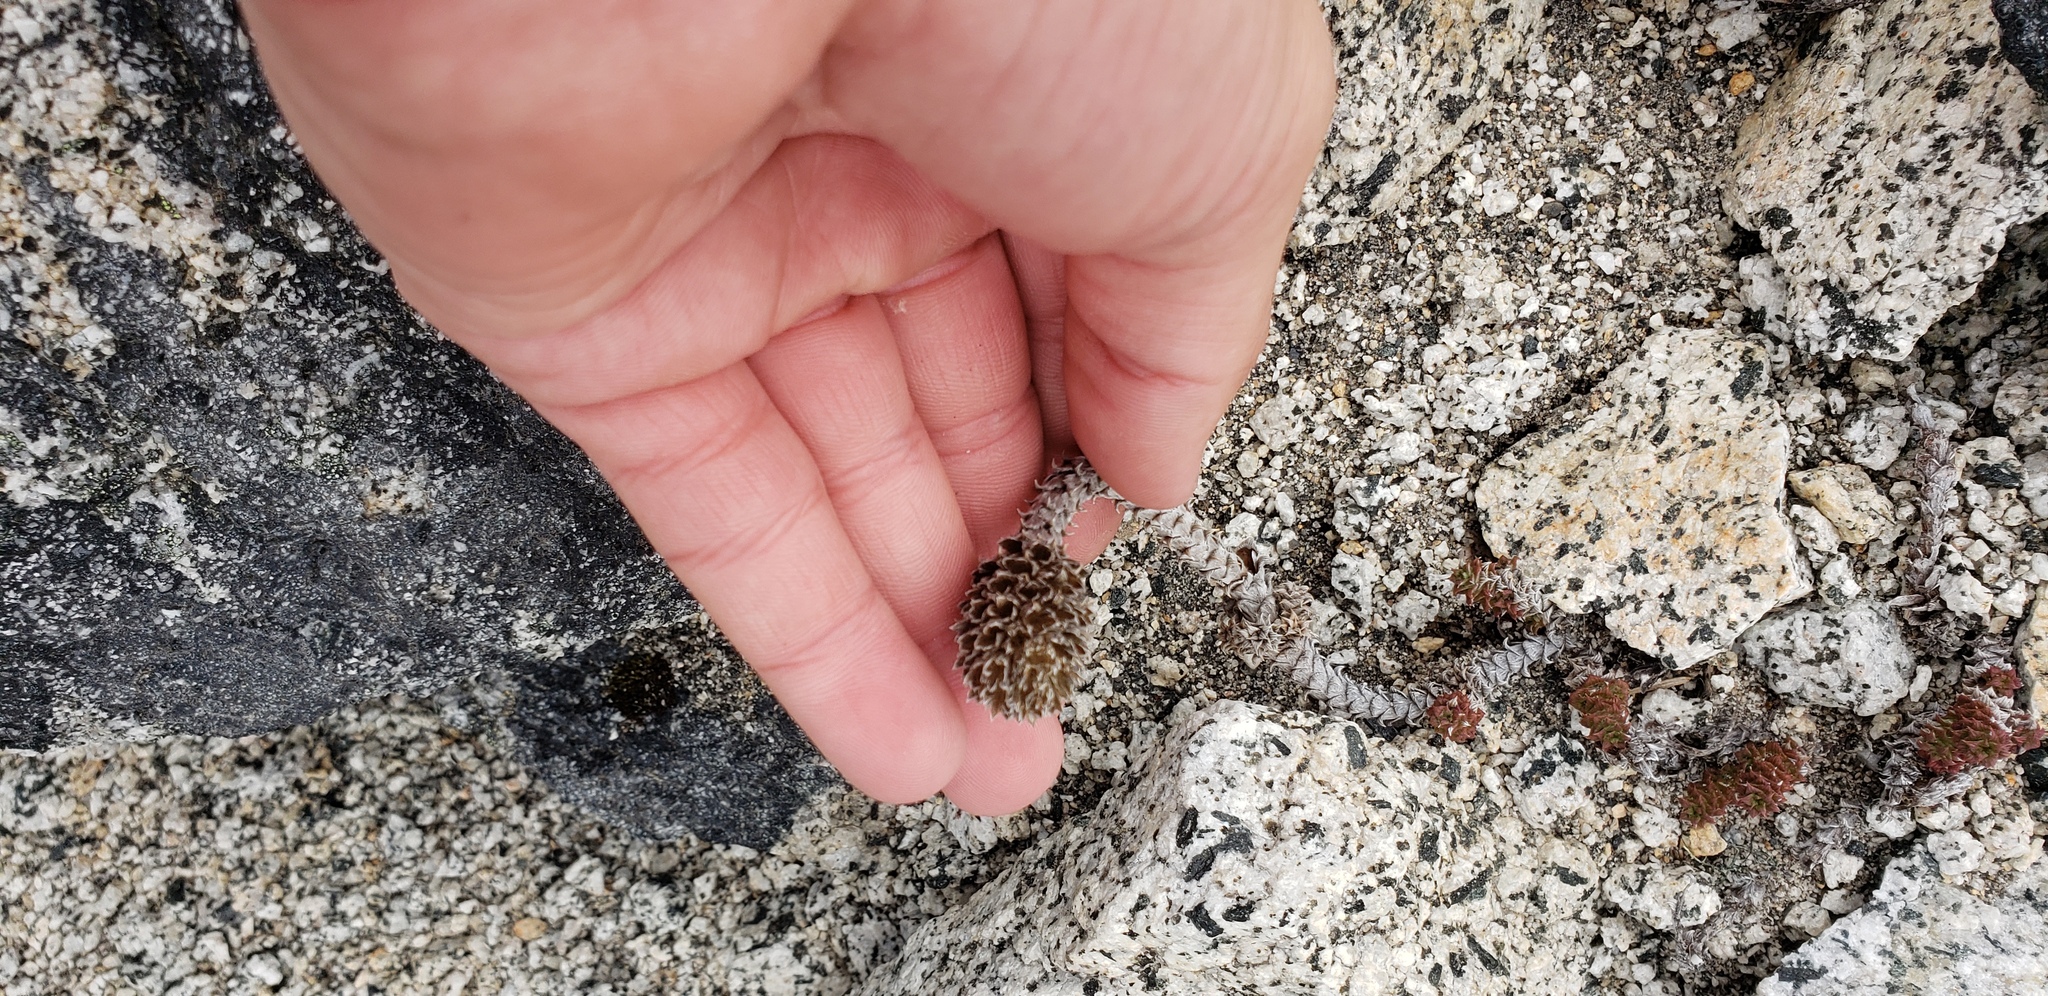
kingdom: Plantae
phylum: Tracheophyta
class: Magnoliopsida
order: Asterales
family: Asteraceae
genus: Nassauvia
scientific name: Nassauvia revoluta
